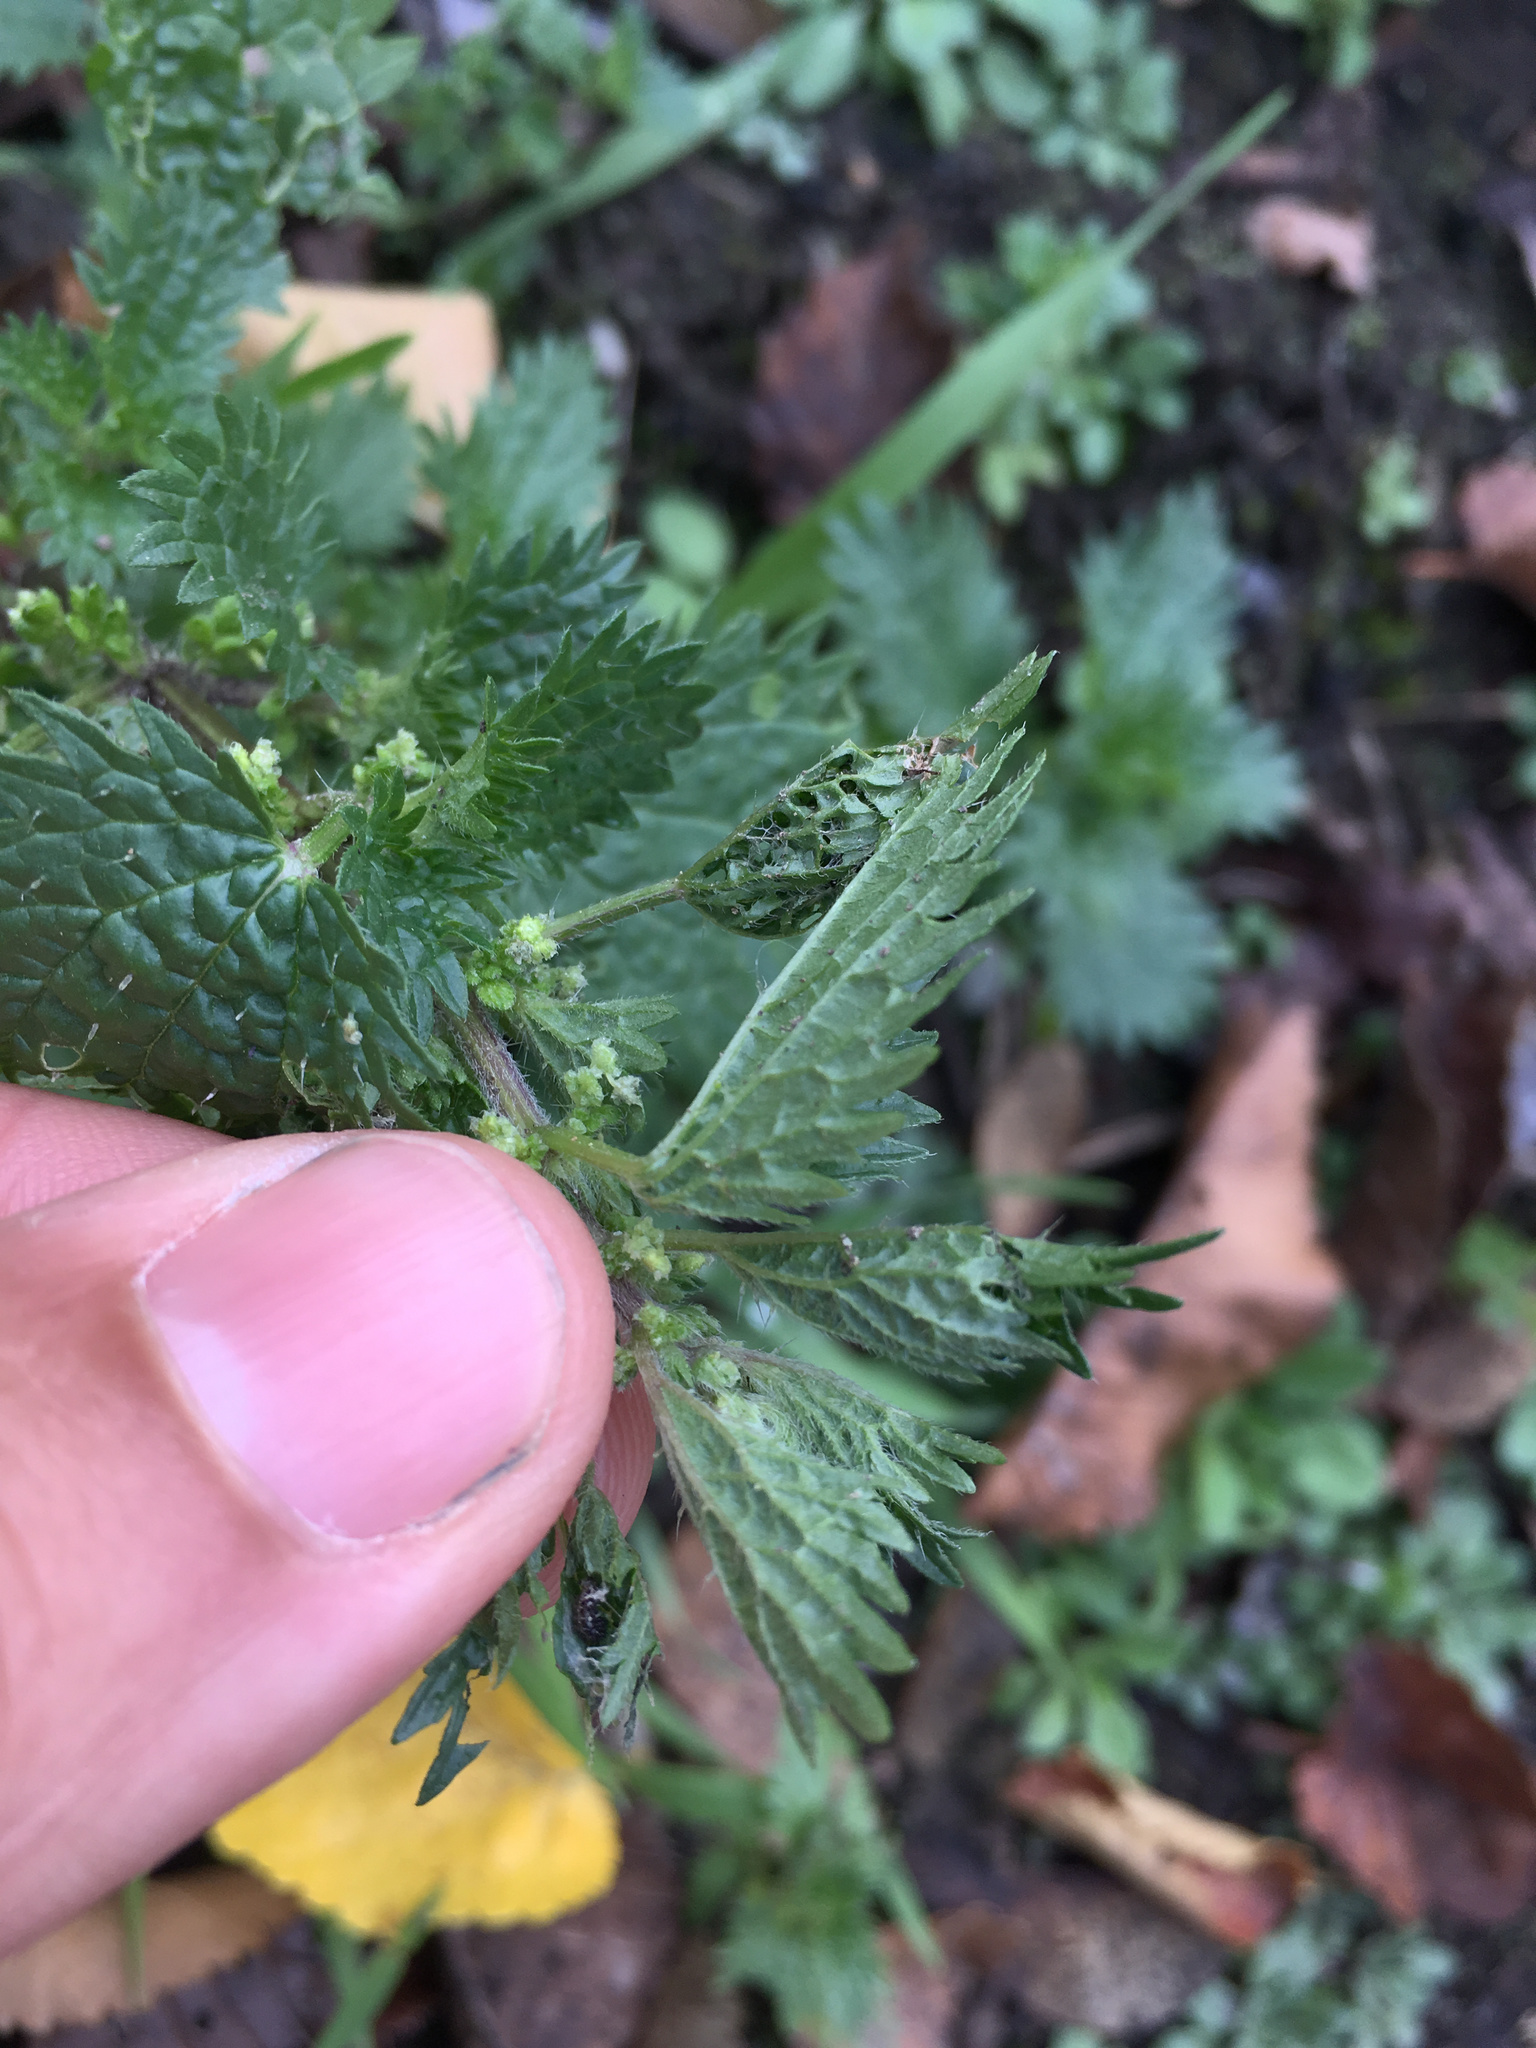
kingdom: Animalia
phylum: Arthropoda
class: Insecta
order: Lepidoptera
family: Nymphalidae
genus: Vanessa
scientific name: Vanessa itea
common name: Yellow admiral
